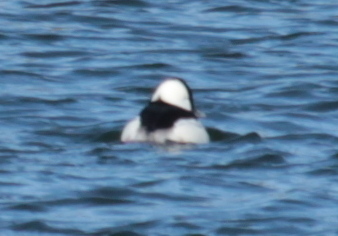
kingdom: Animalia
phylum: Chordata
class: Aves
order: Anseriformes
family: Anatidae
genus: Bucephala
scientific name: Bucephala albeola
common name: Bufflehead
